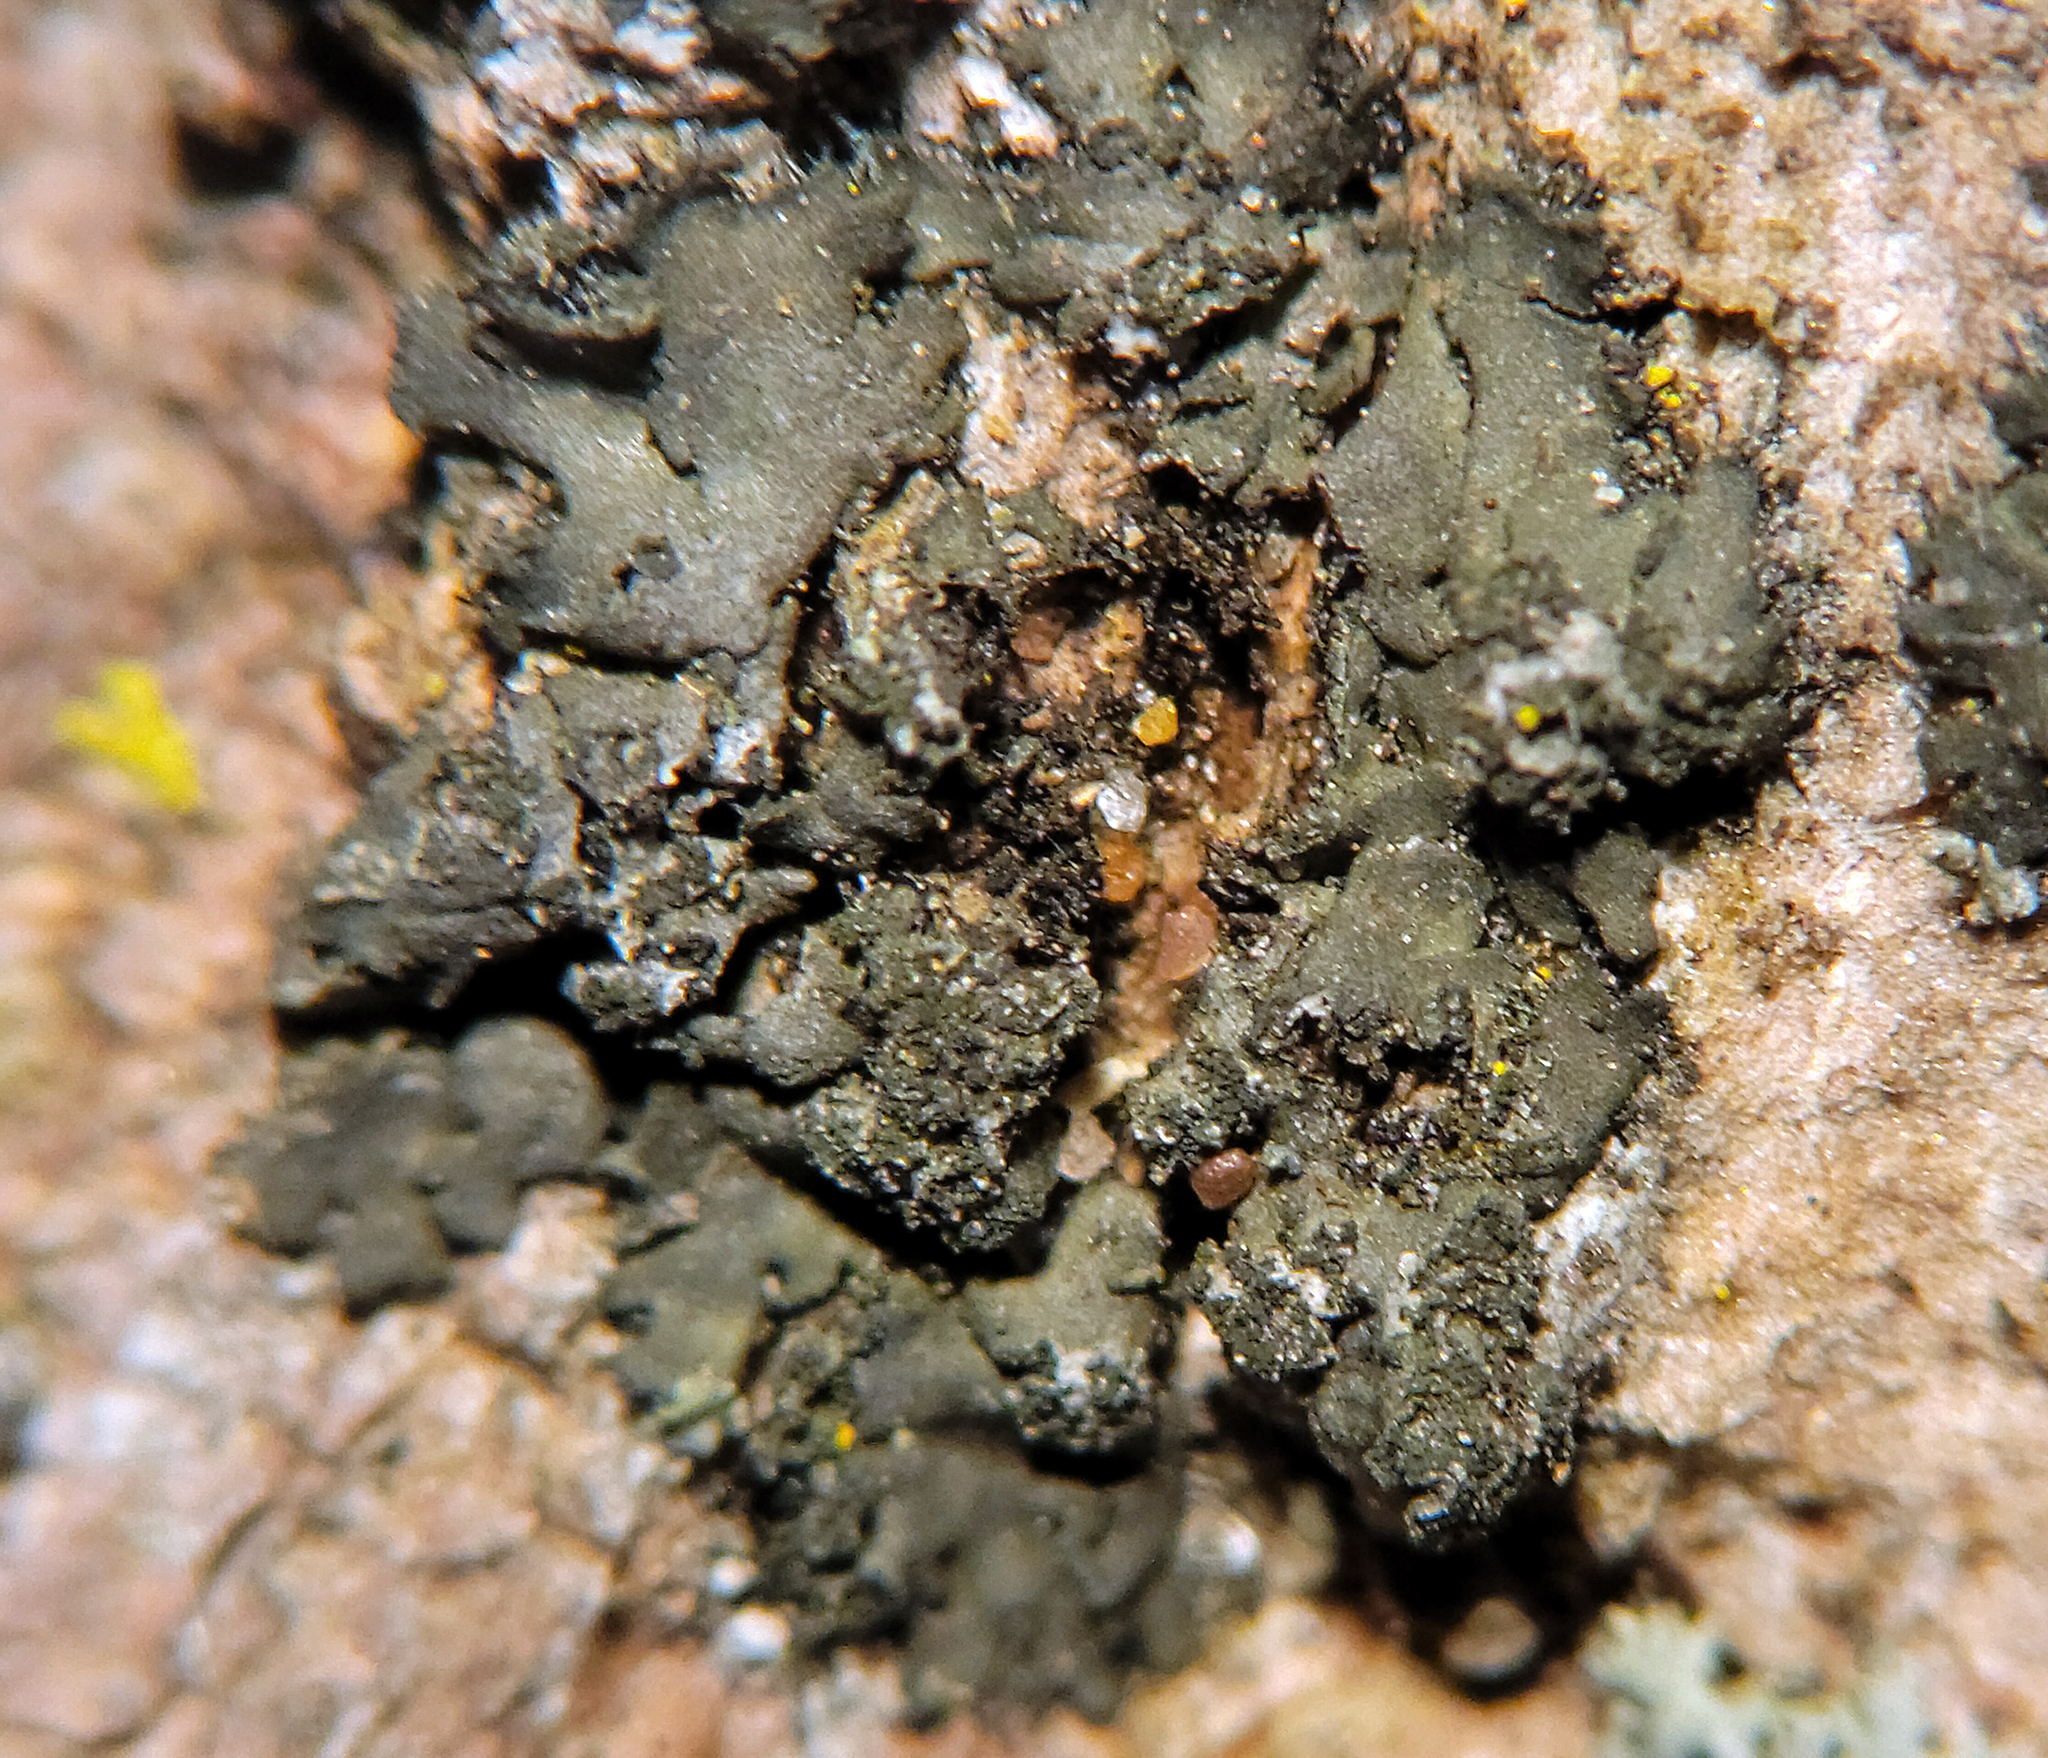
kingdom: Fungi
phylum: Ascomycota
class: Lecanoromycetes
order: Caliciales
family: Physciaceae
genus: Phaeophyscia
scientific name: Phaeophyscia rubropulchra
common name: Orange-cored shadow lichen
